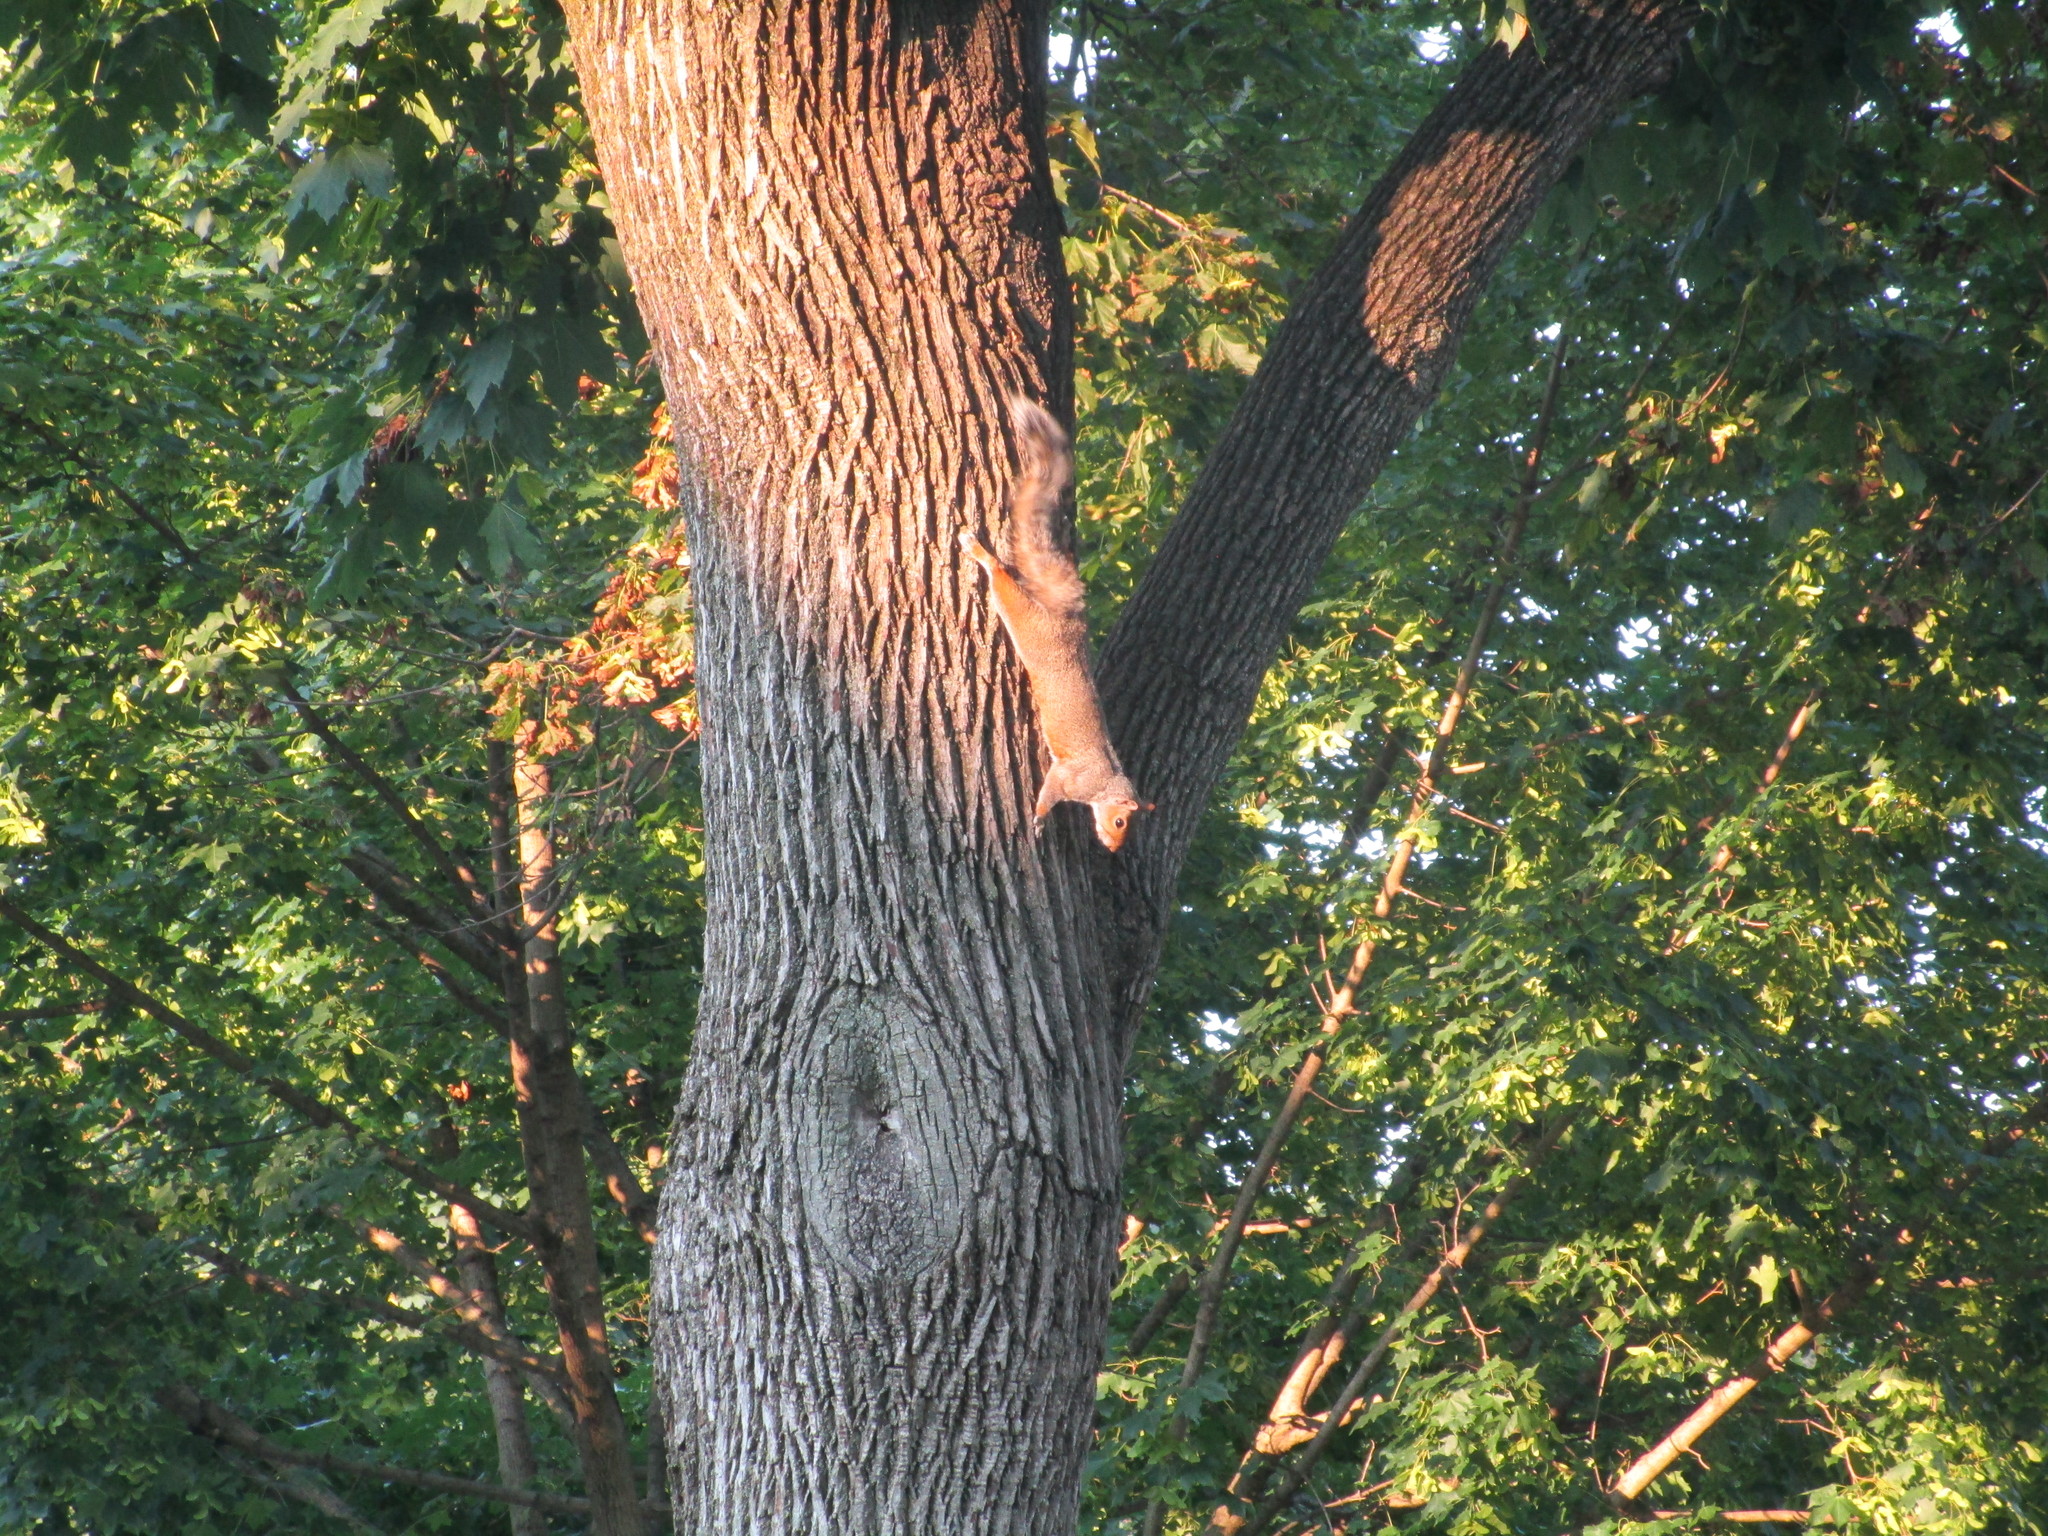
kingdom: Animalia
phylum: Chordata
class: Mammalia
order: Rodentia
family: Sciuridae
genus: Sciurus
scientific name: Sciurus carolinensis
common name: Eastern gray squirrel
